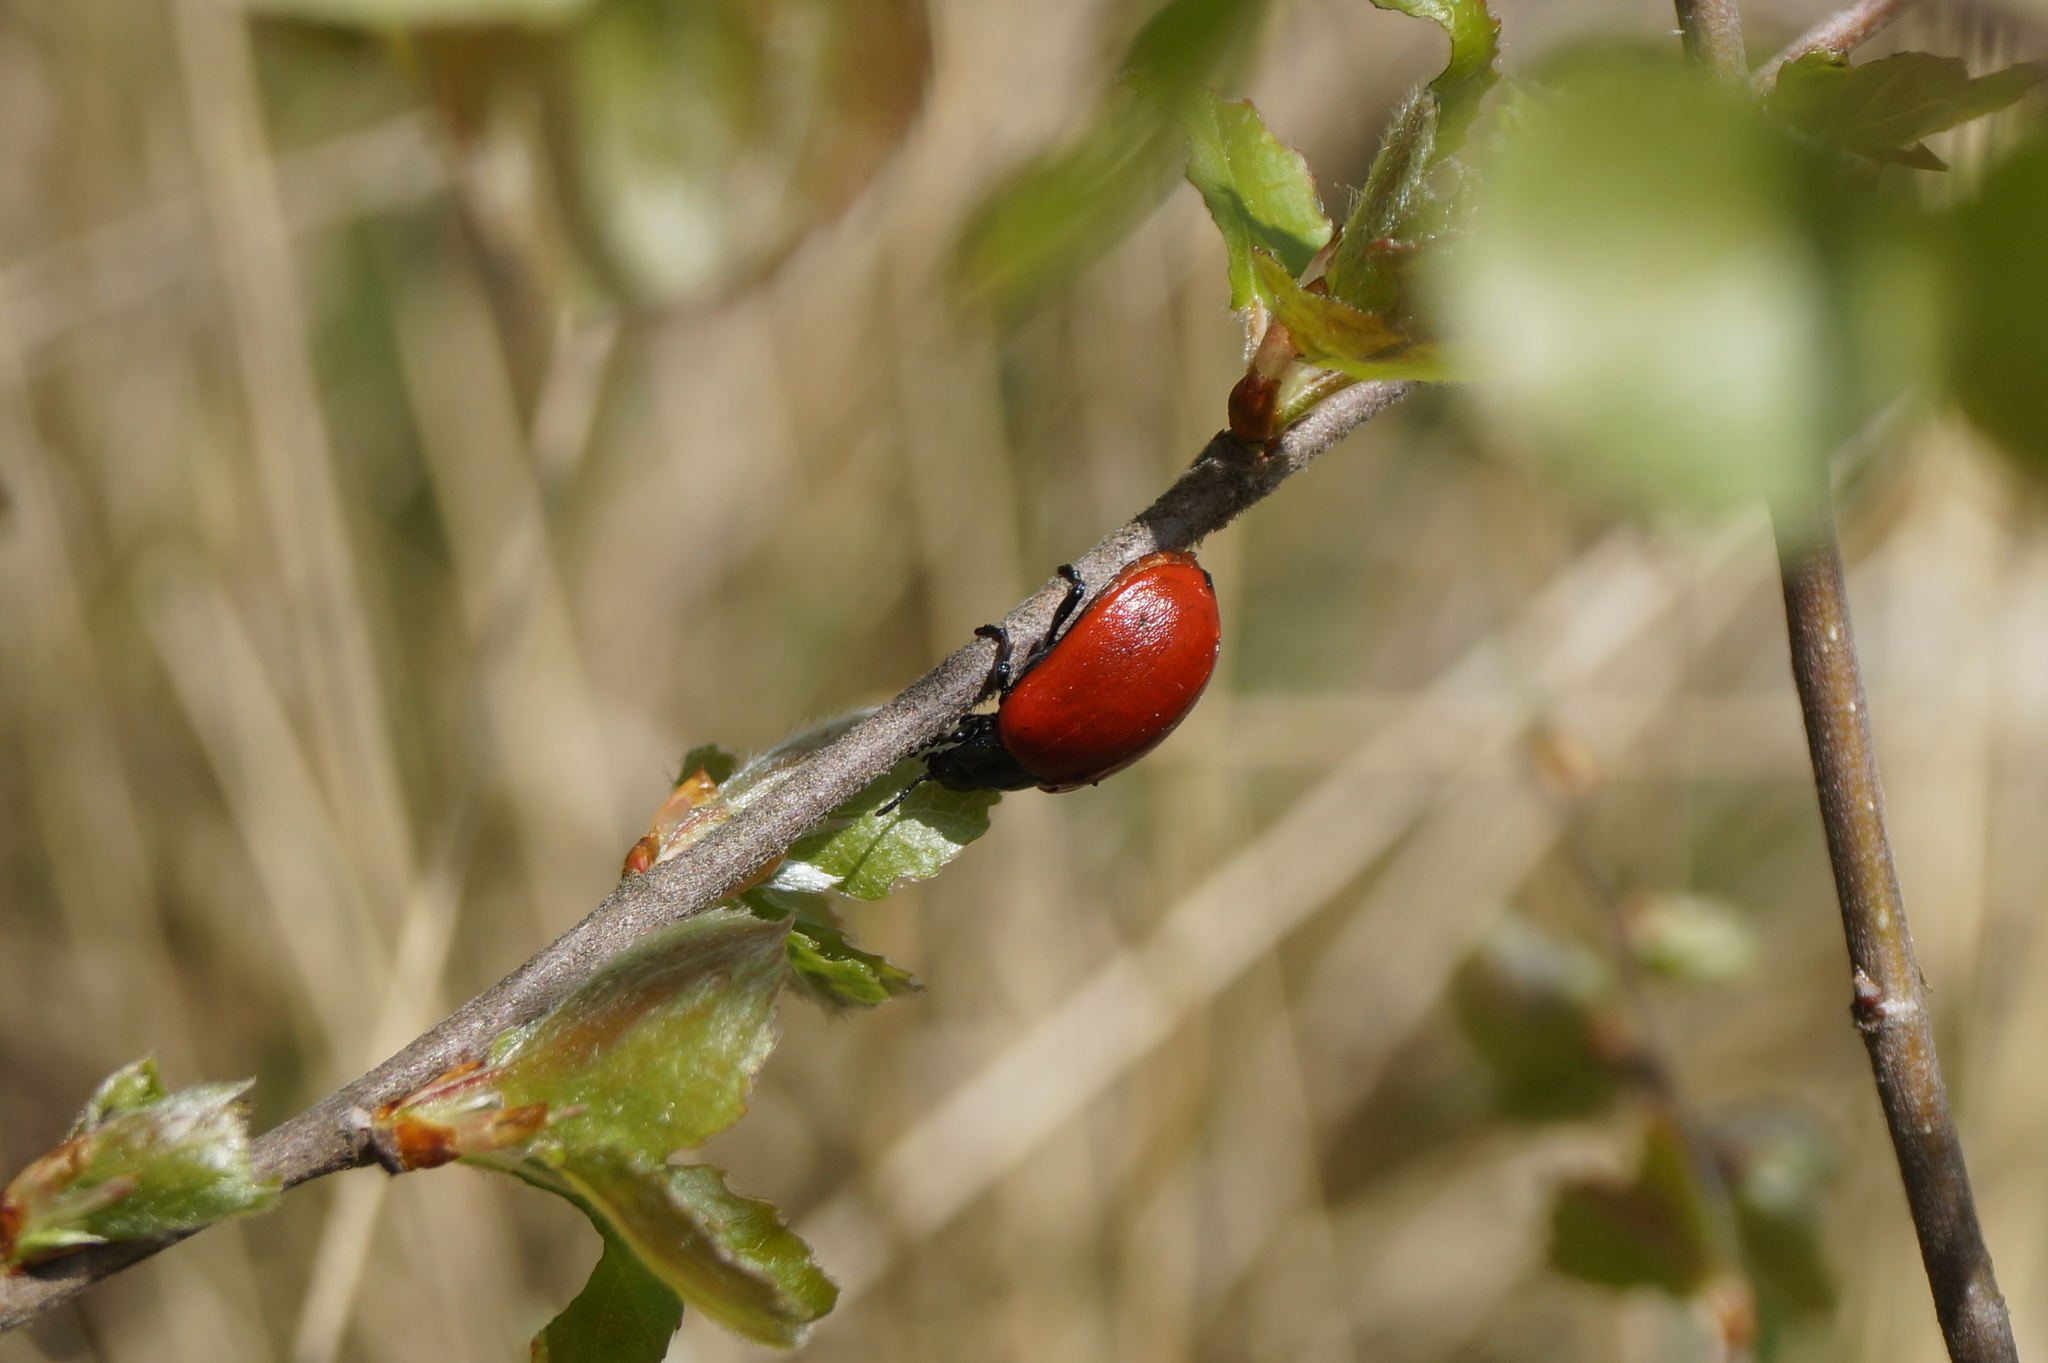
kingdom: Animalia
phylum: Arthropoda
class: Insecta
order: Coleoptera
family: Chrysomelidae
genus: Chrysomela
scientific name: Chrysomela populi
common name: Red poplar leaf beetle
